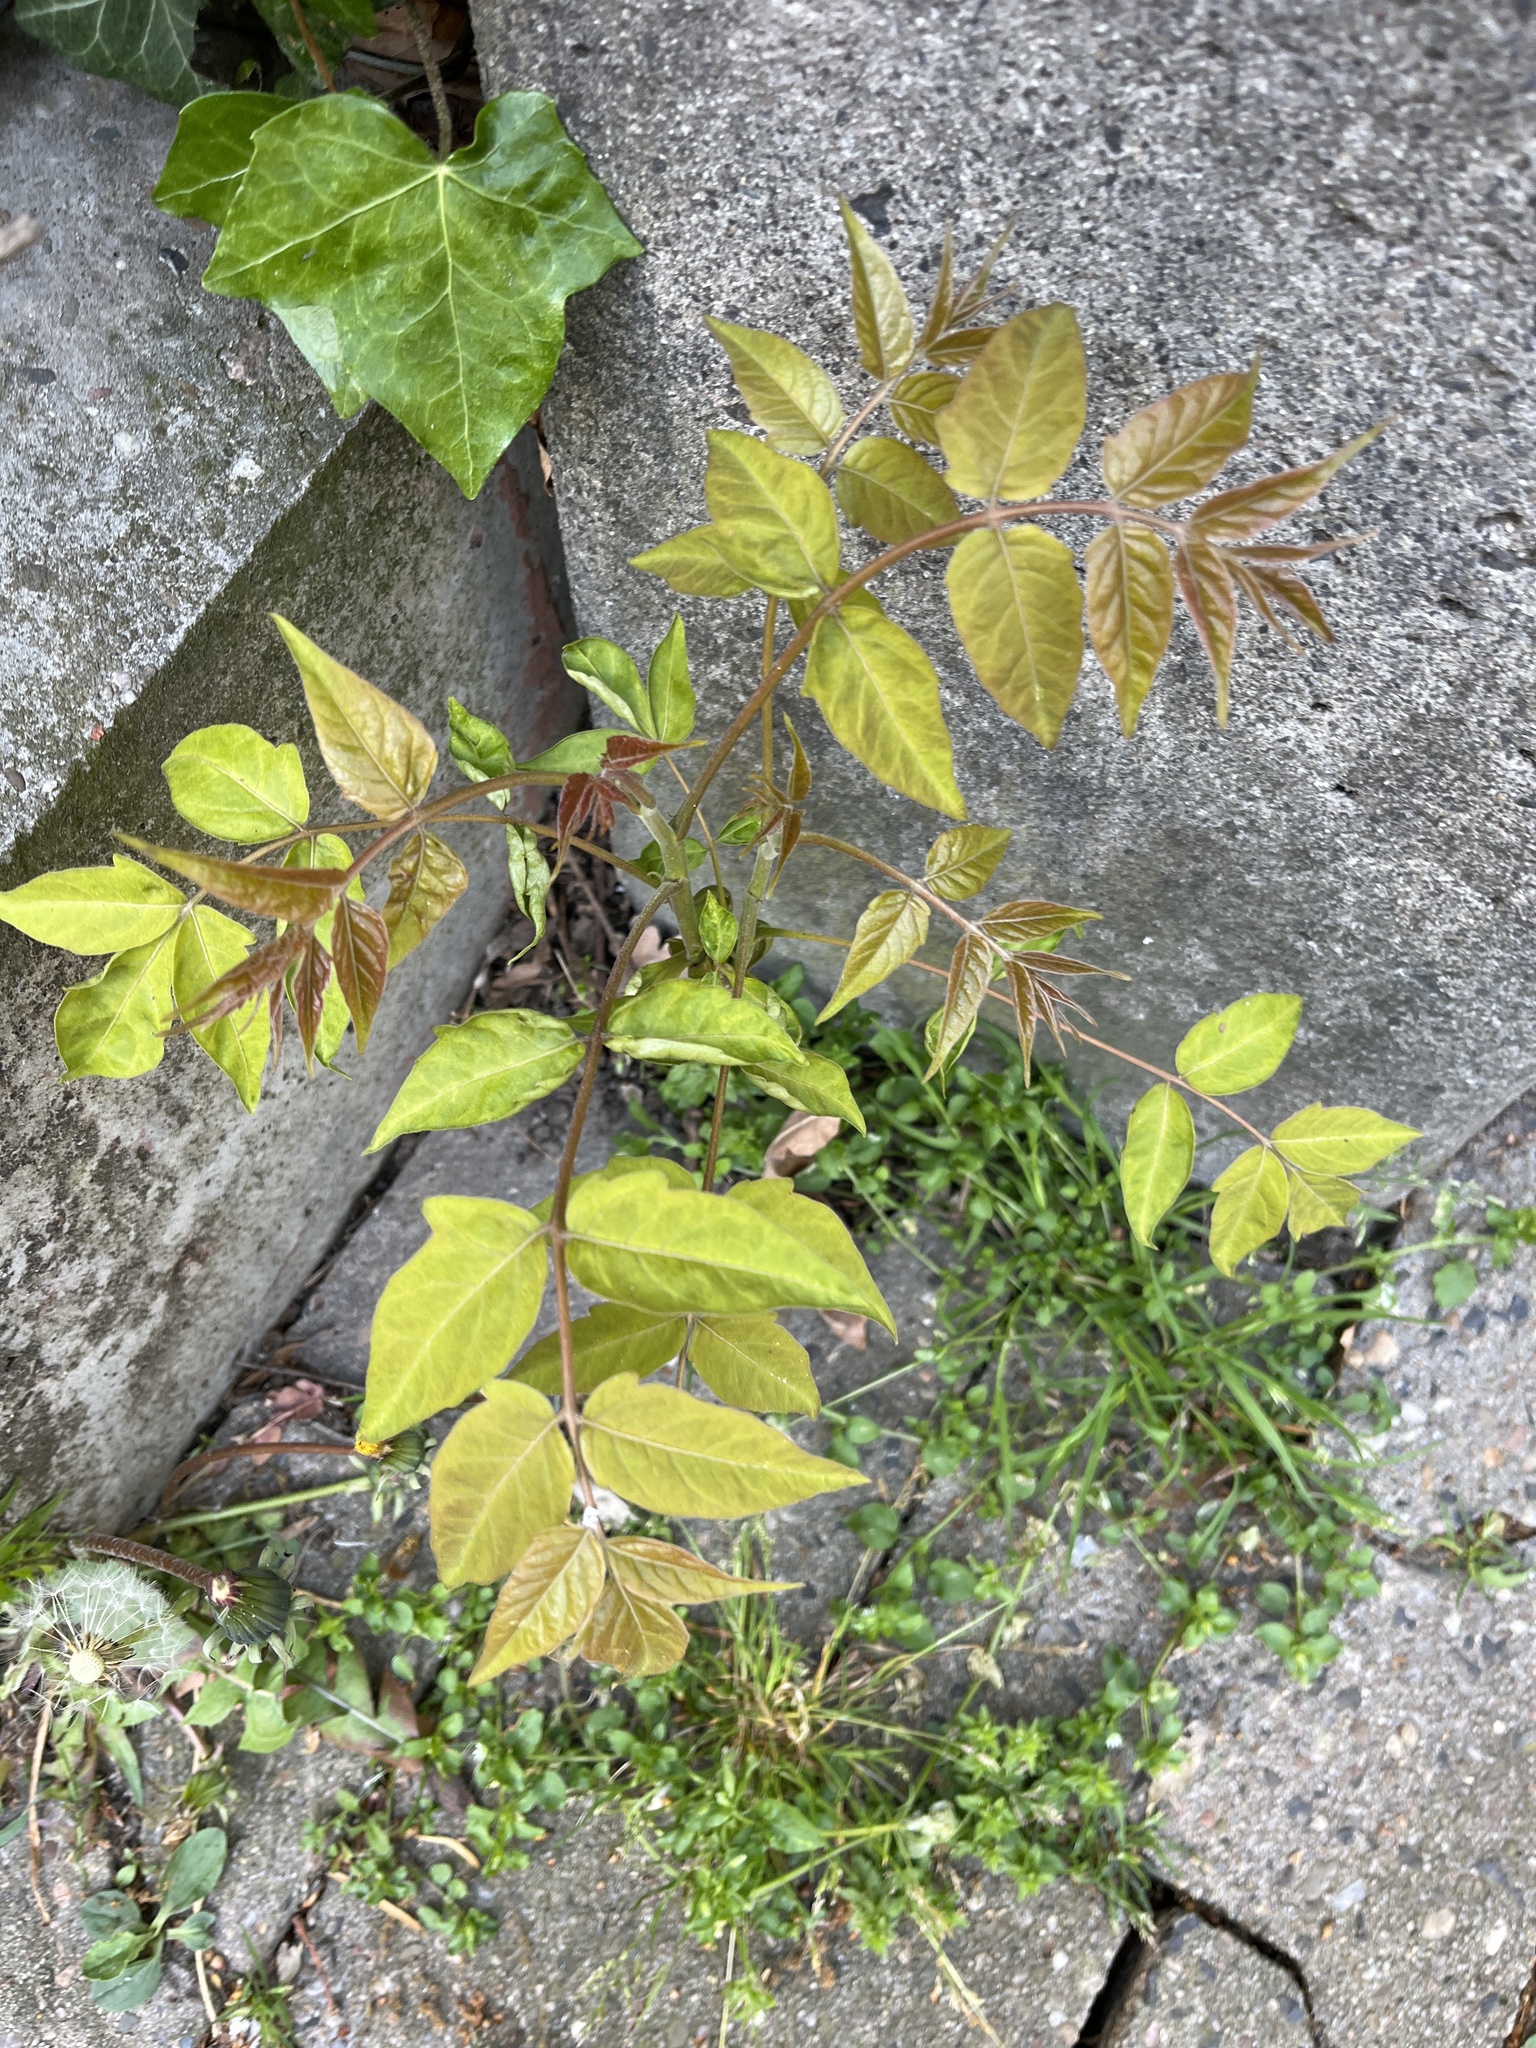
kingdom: Plantae
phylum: Tracheophyta
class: Magnoliopsida
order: Sapindales
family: Simaroubaceae
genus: Ailanthus
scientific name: Ailanthus altissima
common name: Tree-of-heaven
